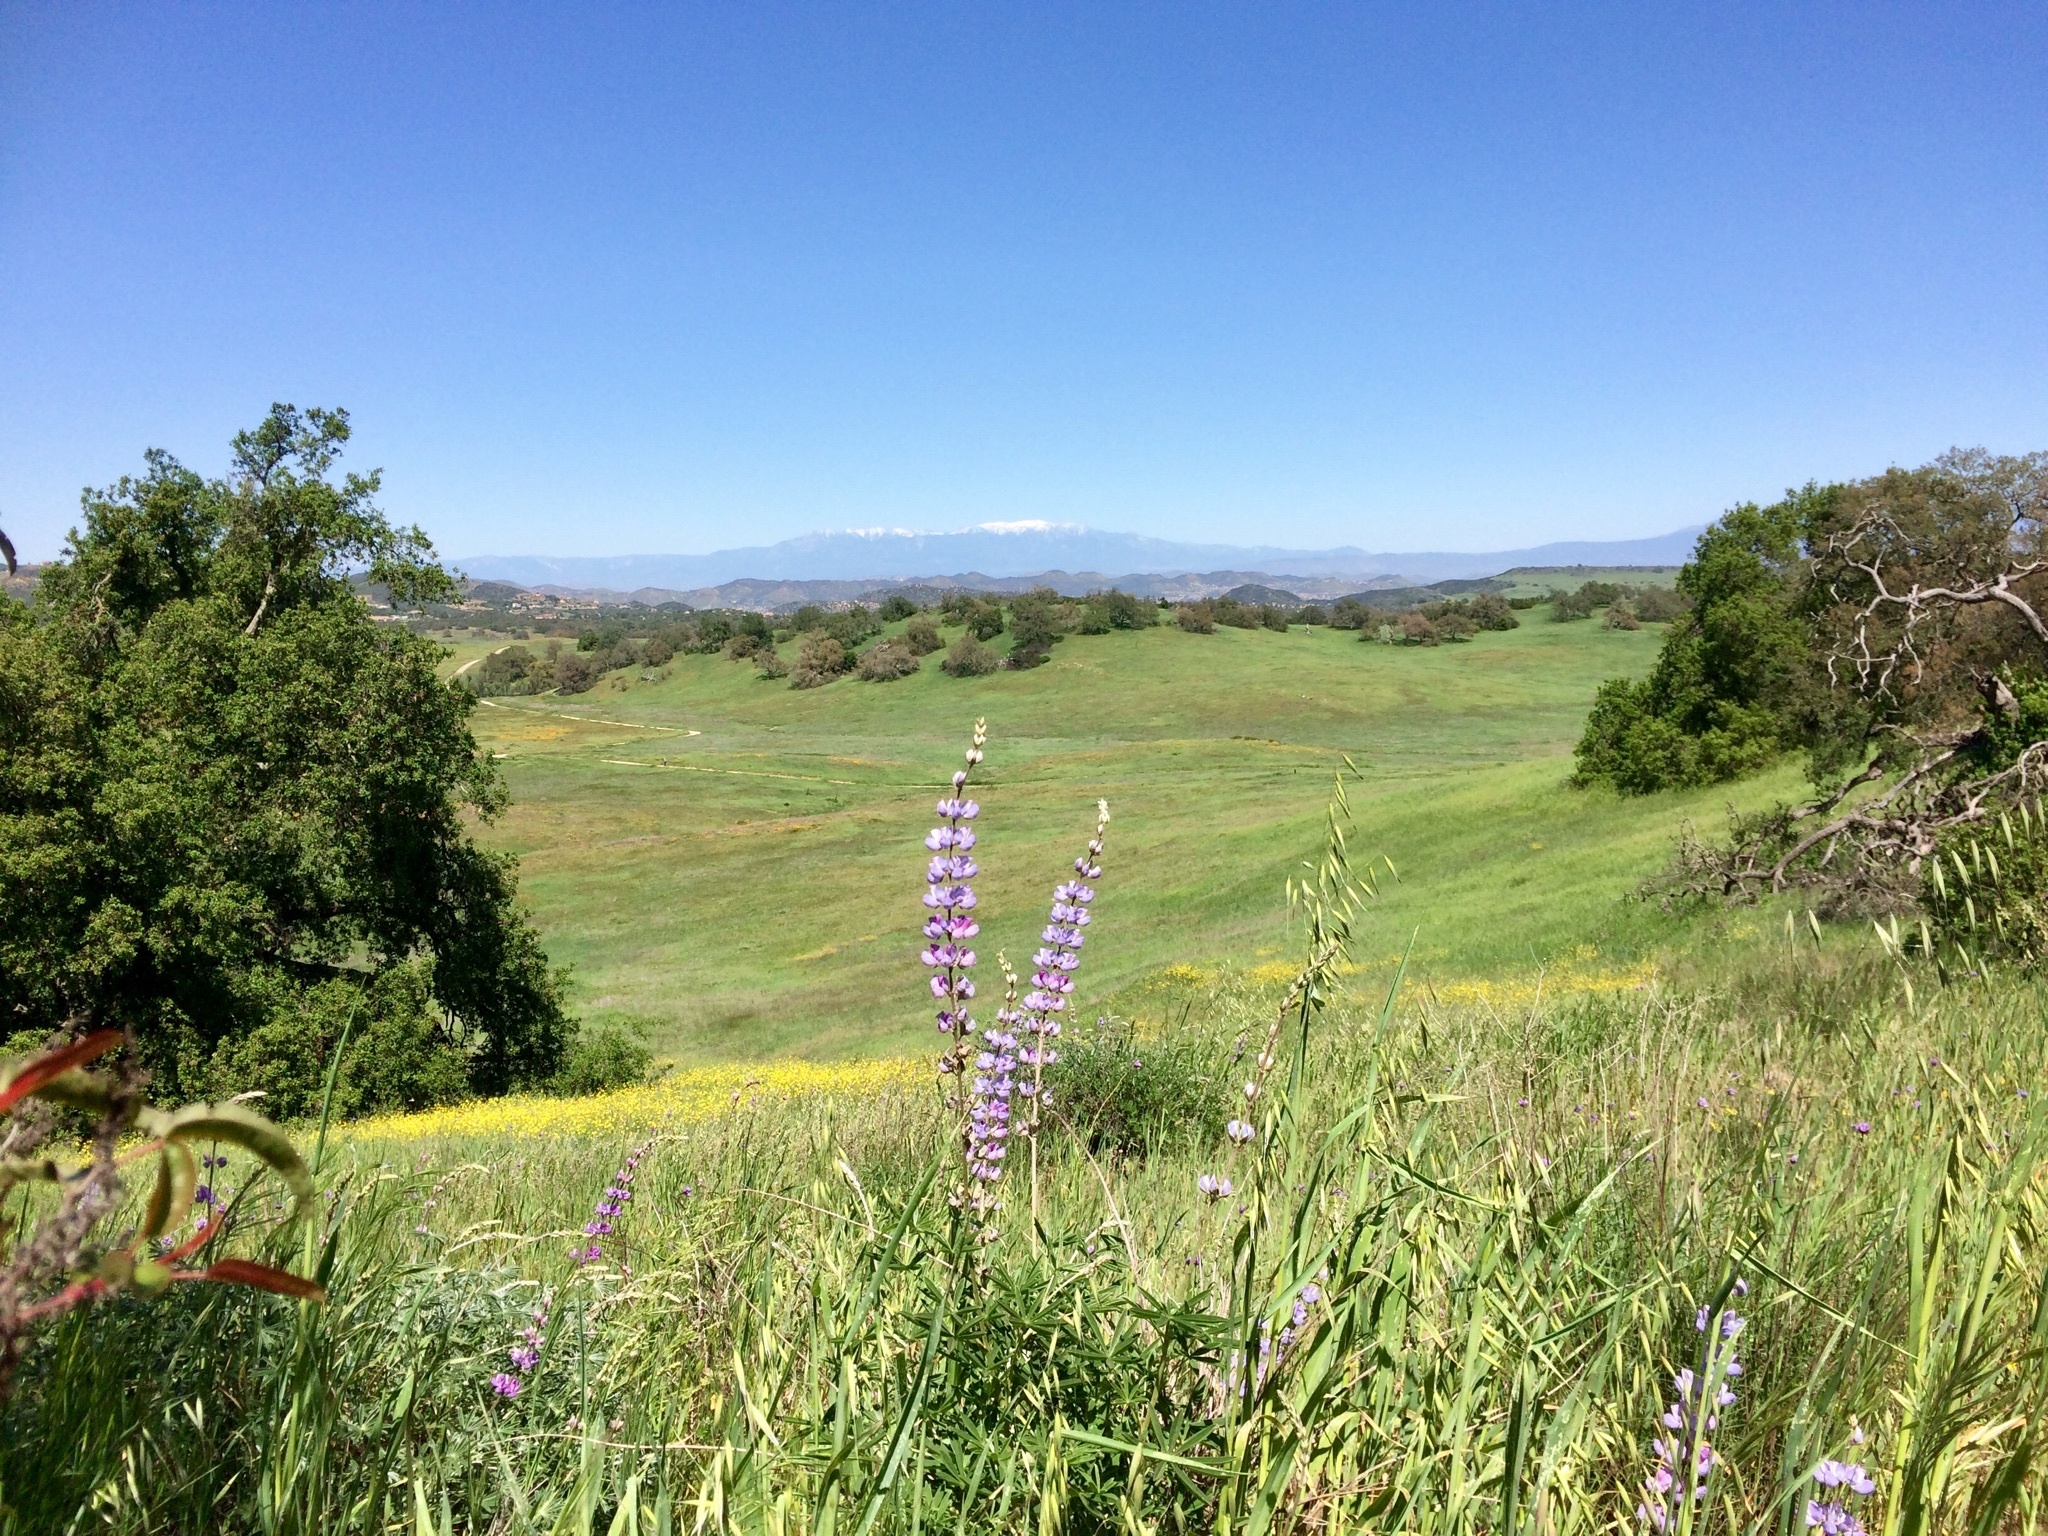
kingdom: Plantae
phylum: Tracheophyta
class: Magnoliopsida
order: Fabales
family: Fabaceae
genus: Lupinus
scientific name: Lupinus excubitus
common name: Grape soda lupine
